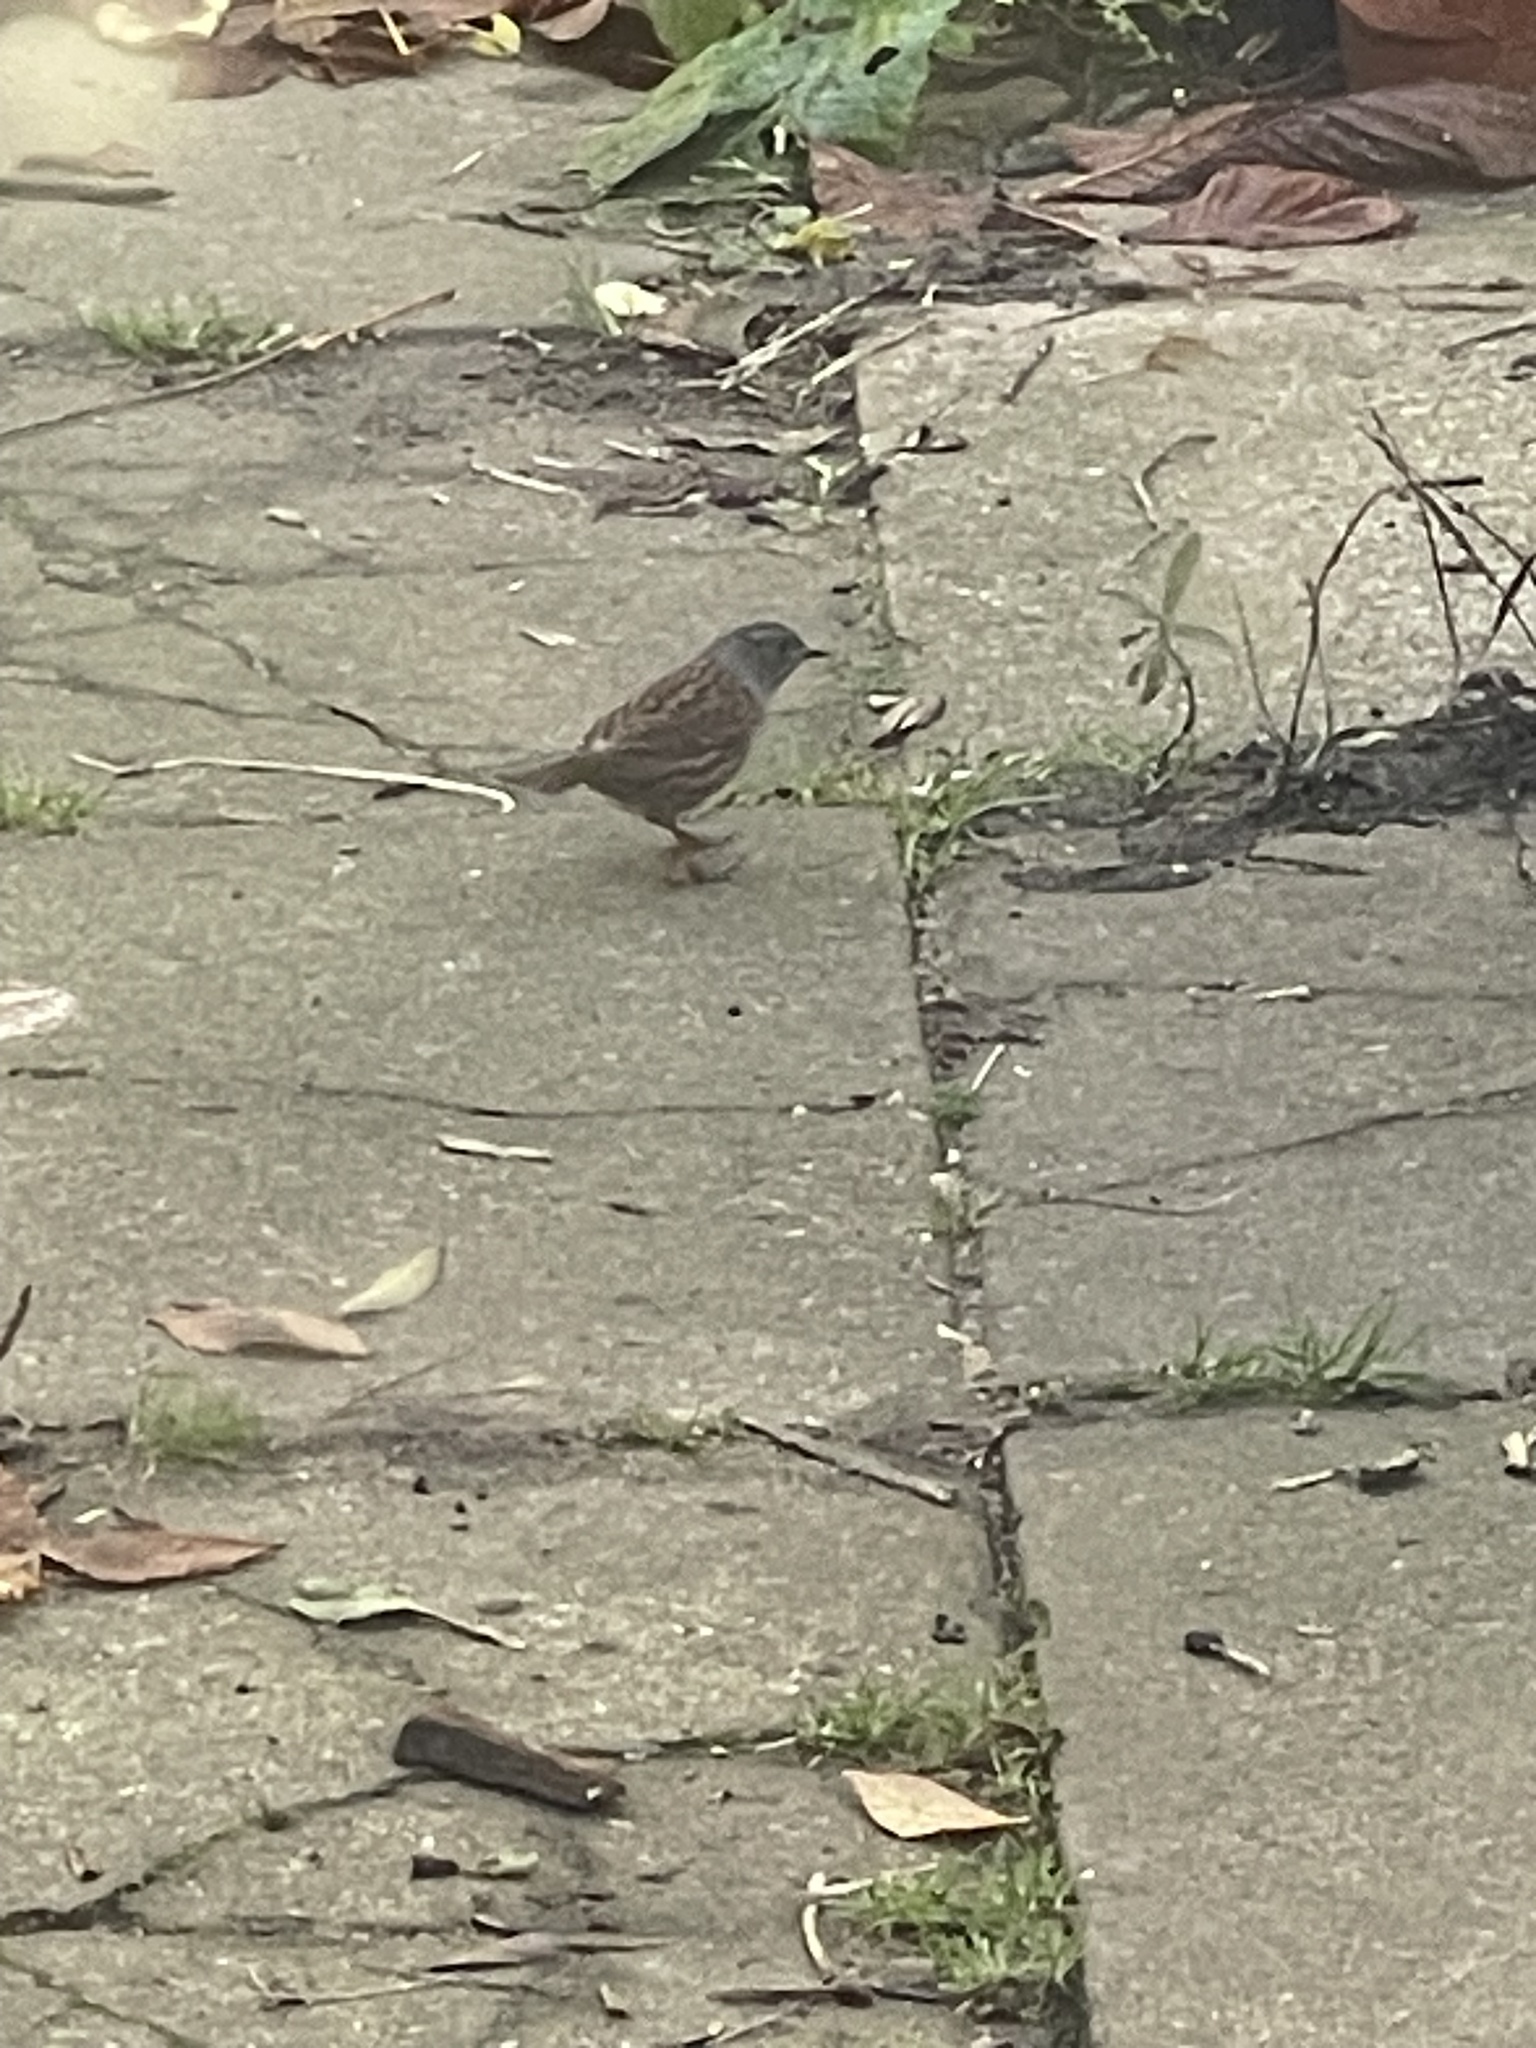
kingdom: Animalia
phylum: Chordata
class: Aves
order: Passeriformes
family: Prunellidae
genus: Prunella
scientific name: Prunella modularis
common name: Dunnock
